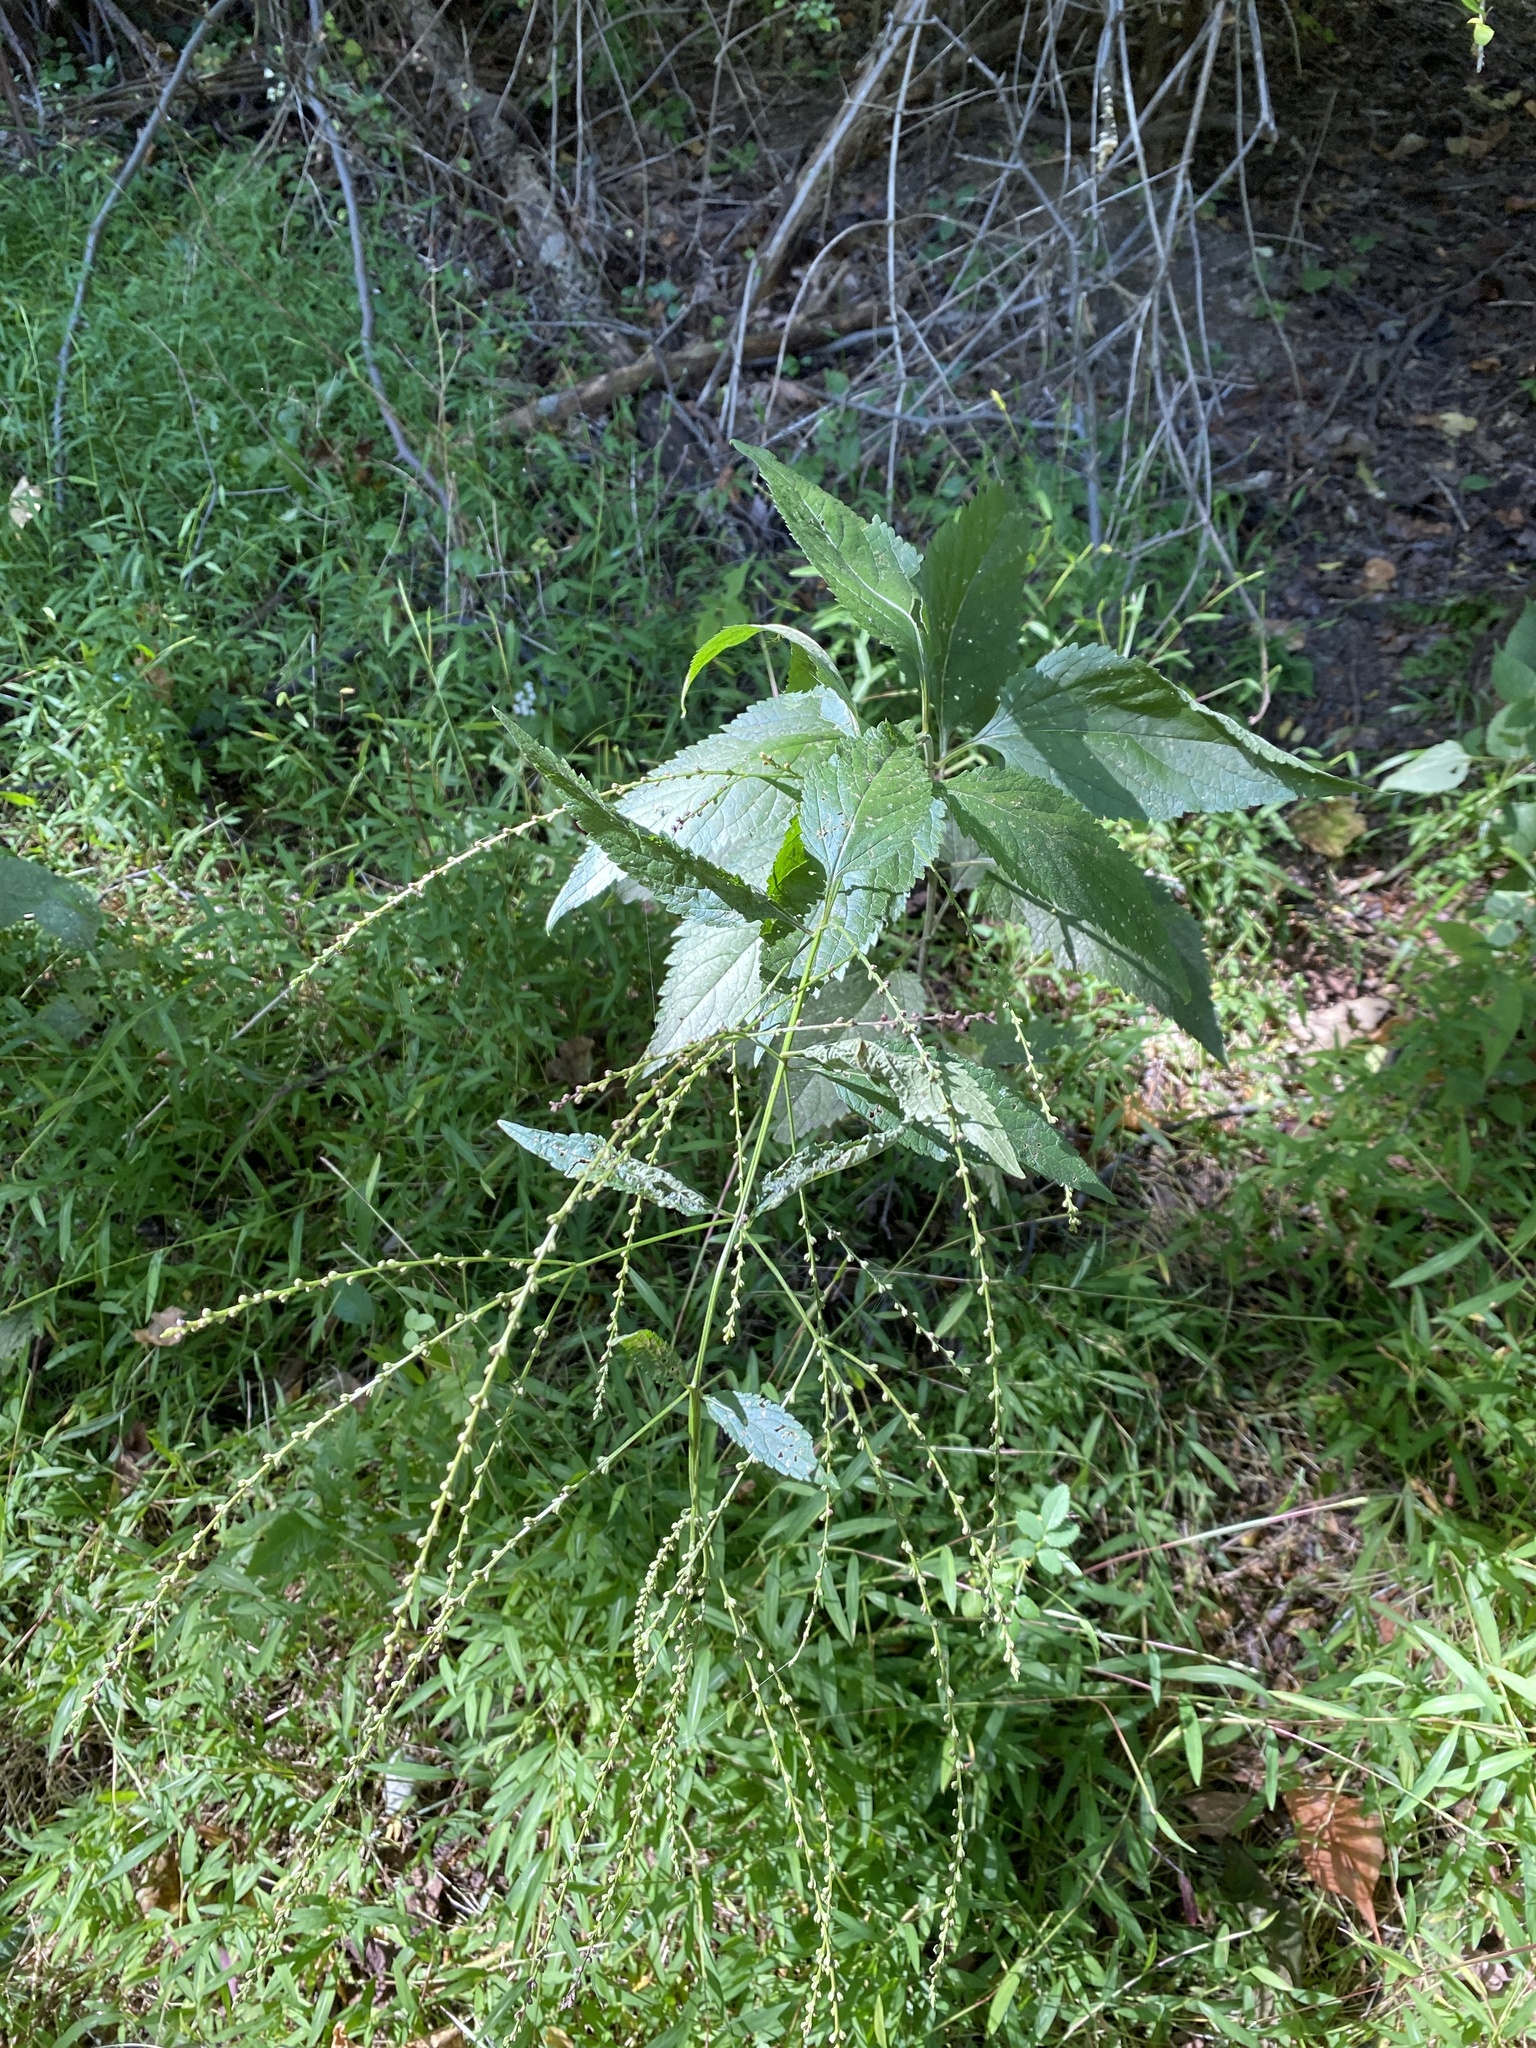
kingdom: Plantae
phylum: Tracheophyta
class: Magnoliopsida
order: Lamiales
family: Verbenaceae
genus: Verbena
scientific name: Verbena urticifolia
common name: Nettle-leaved vervain
